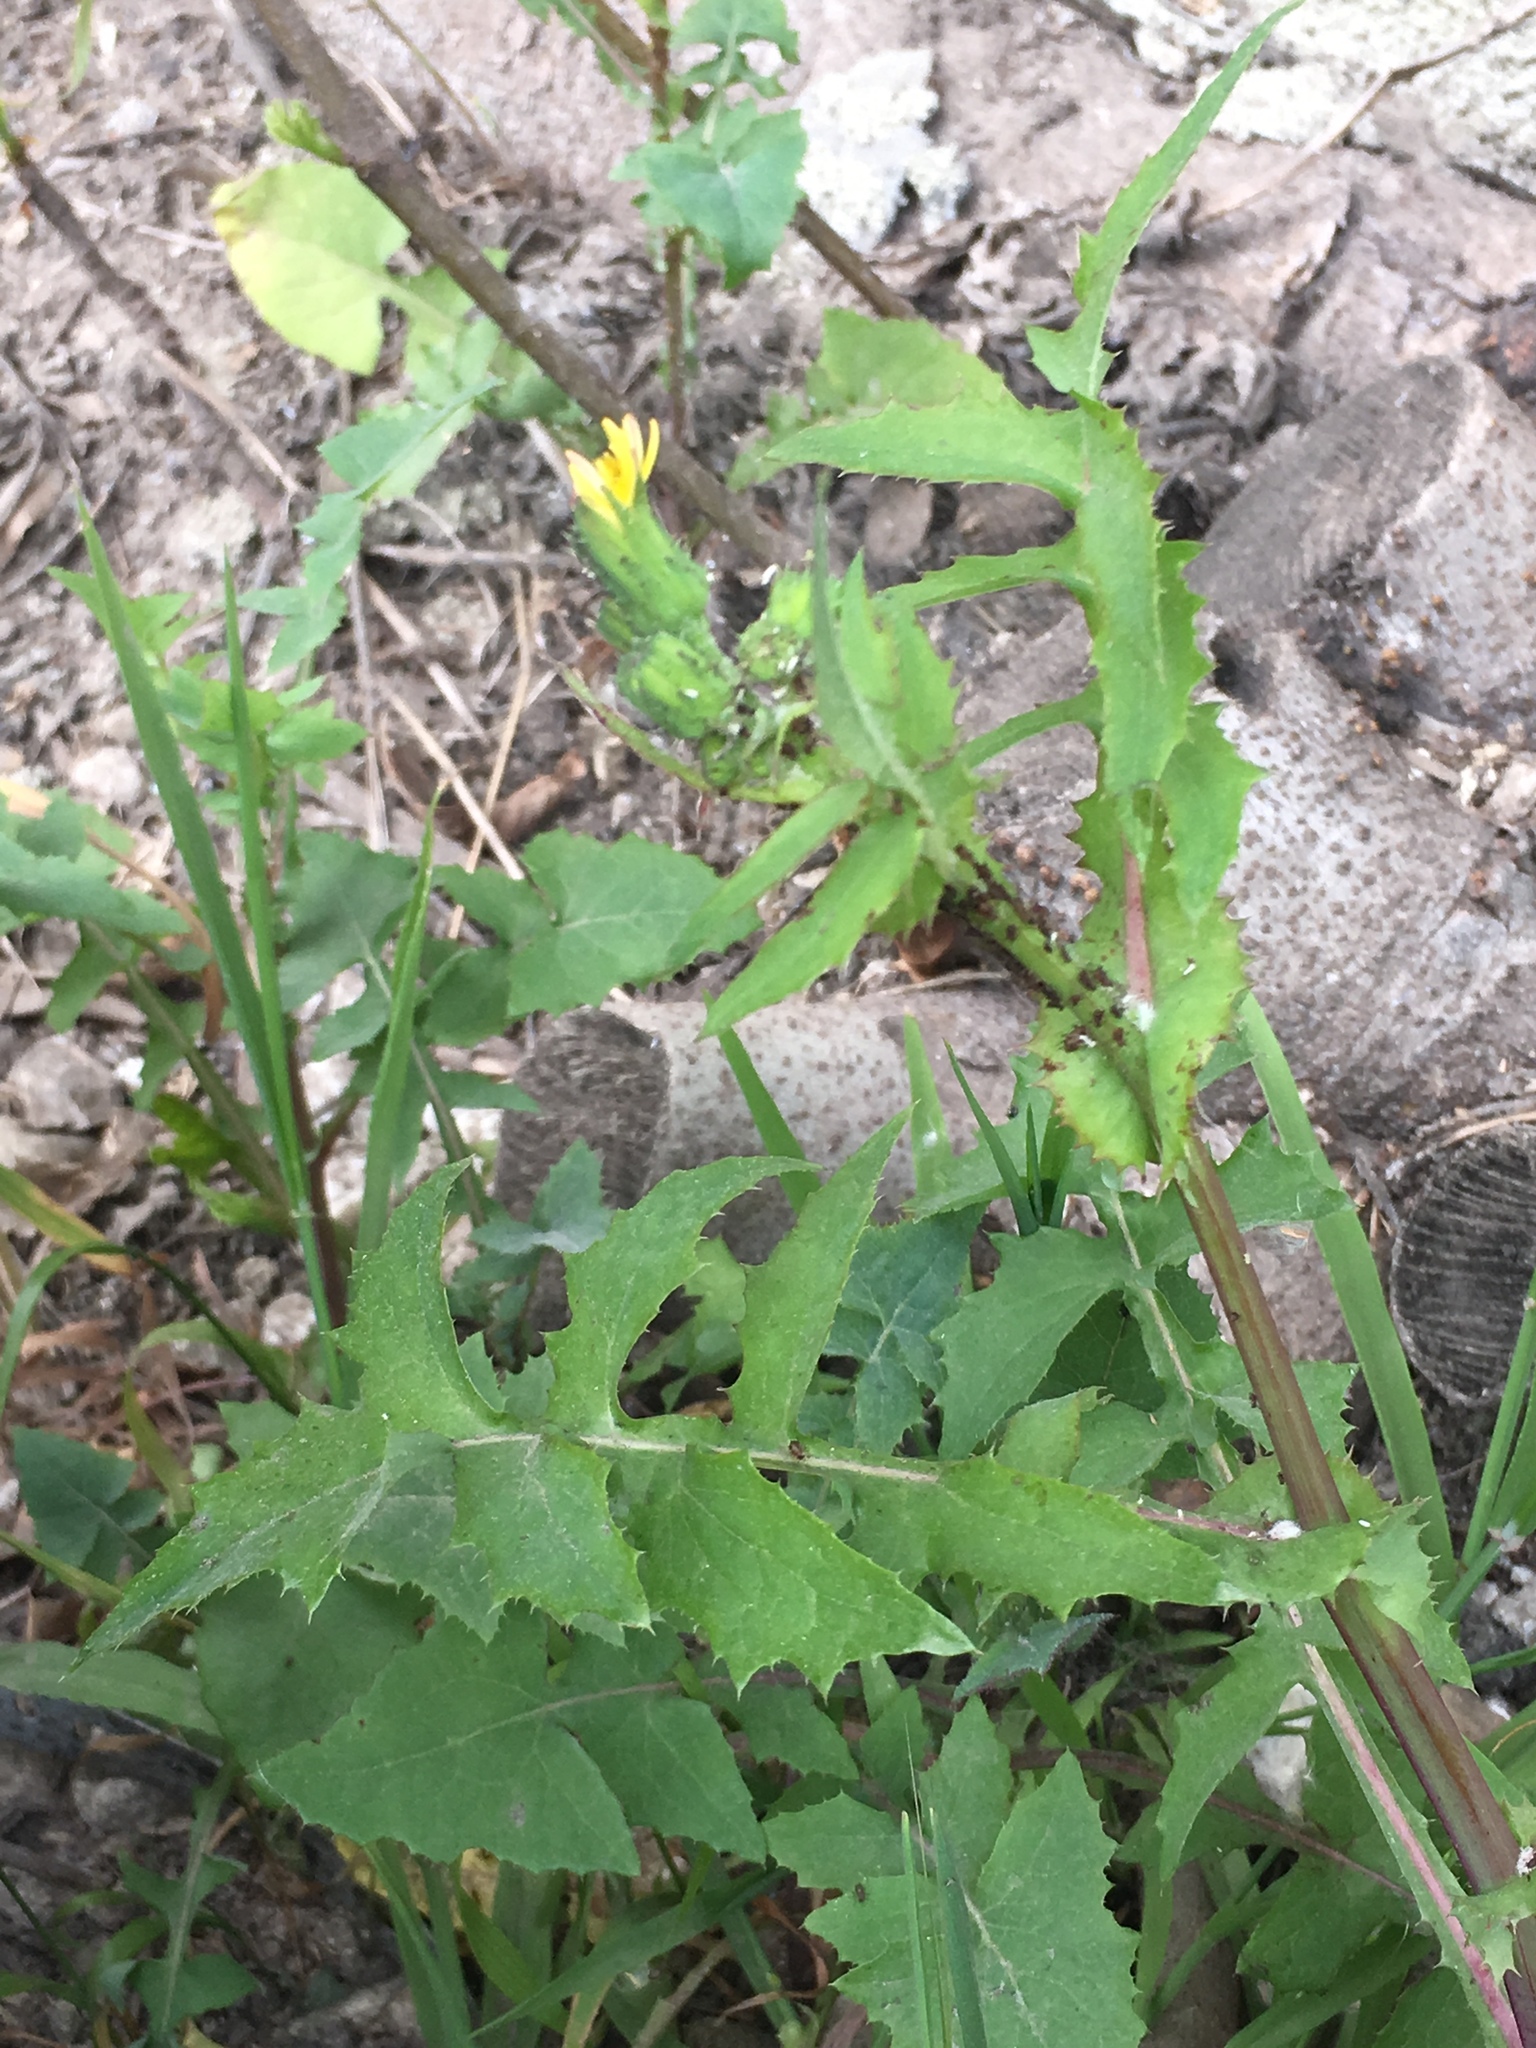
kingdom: Plantae
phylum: Tracheophyta
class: Magnoliopsida
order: Asterales
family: Asteraceae
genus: Sonchus
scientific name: Sonchus oleraceus
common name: Common sowthistle
